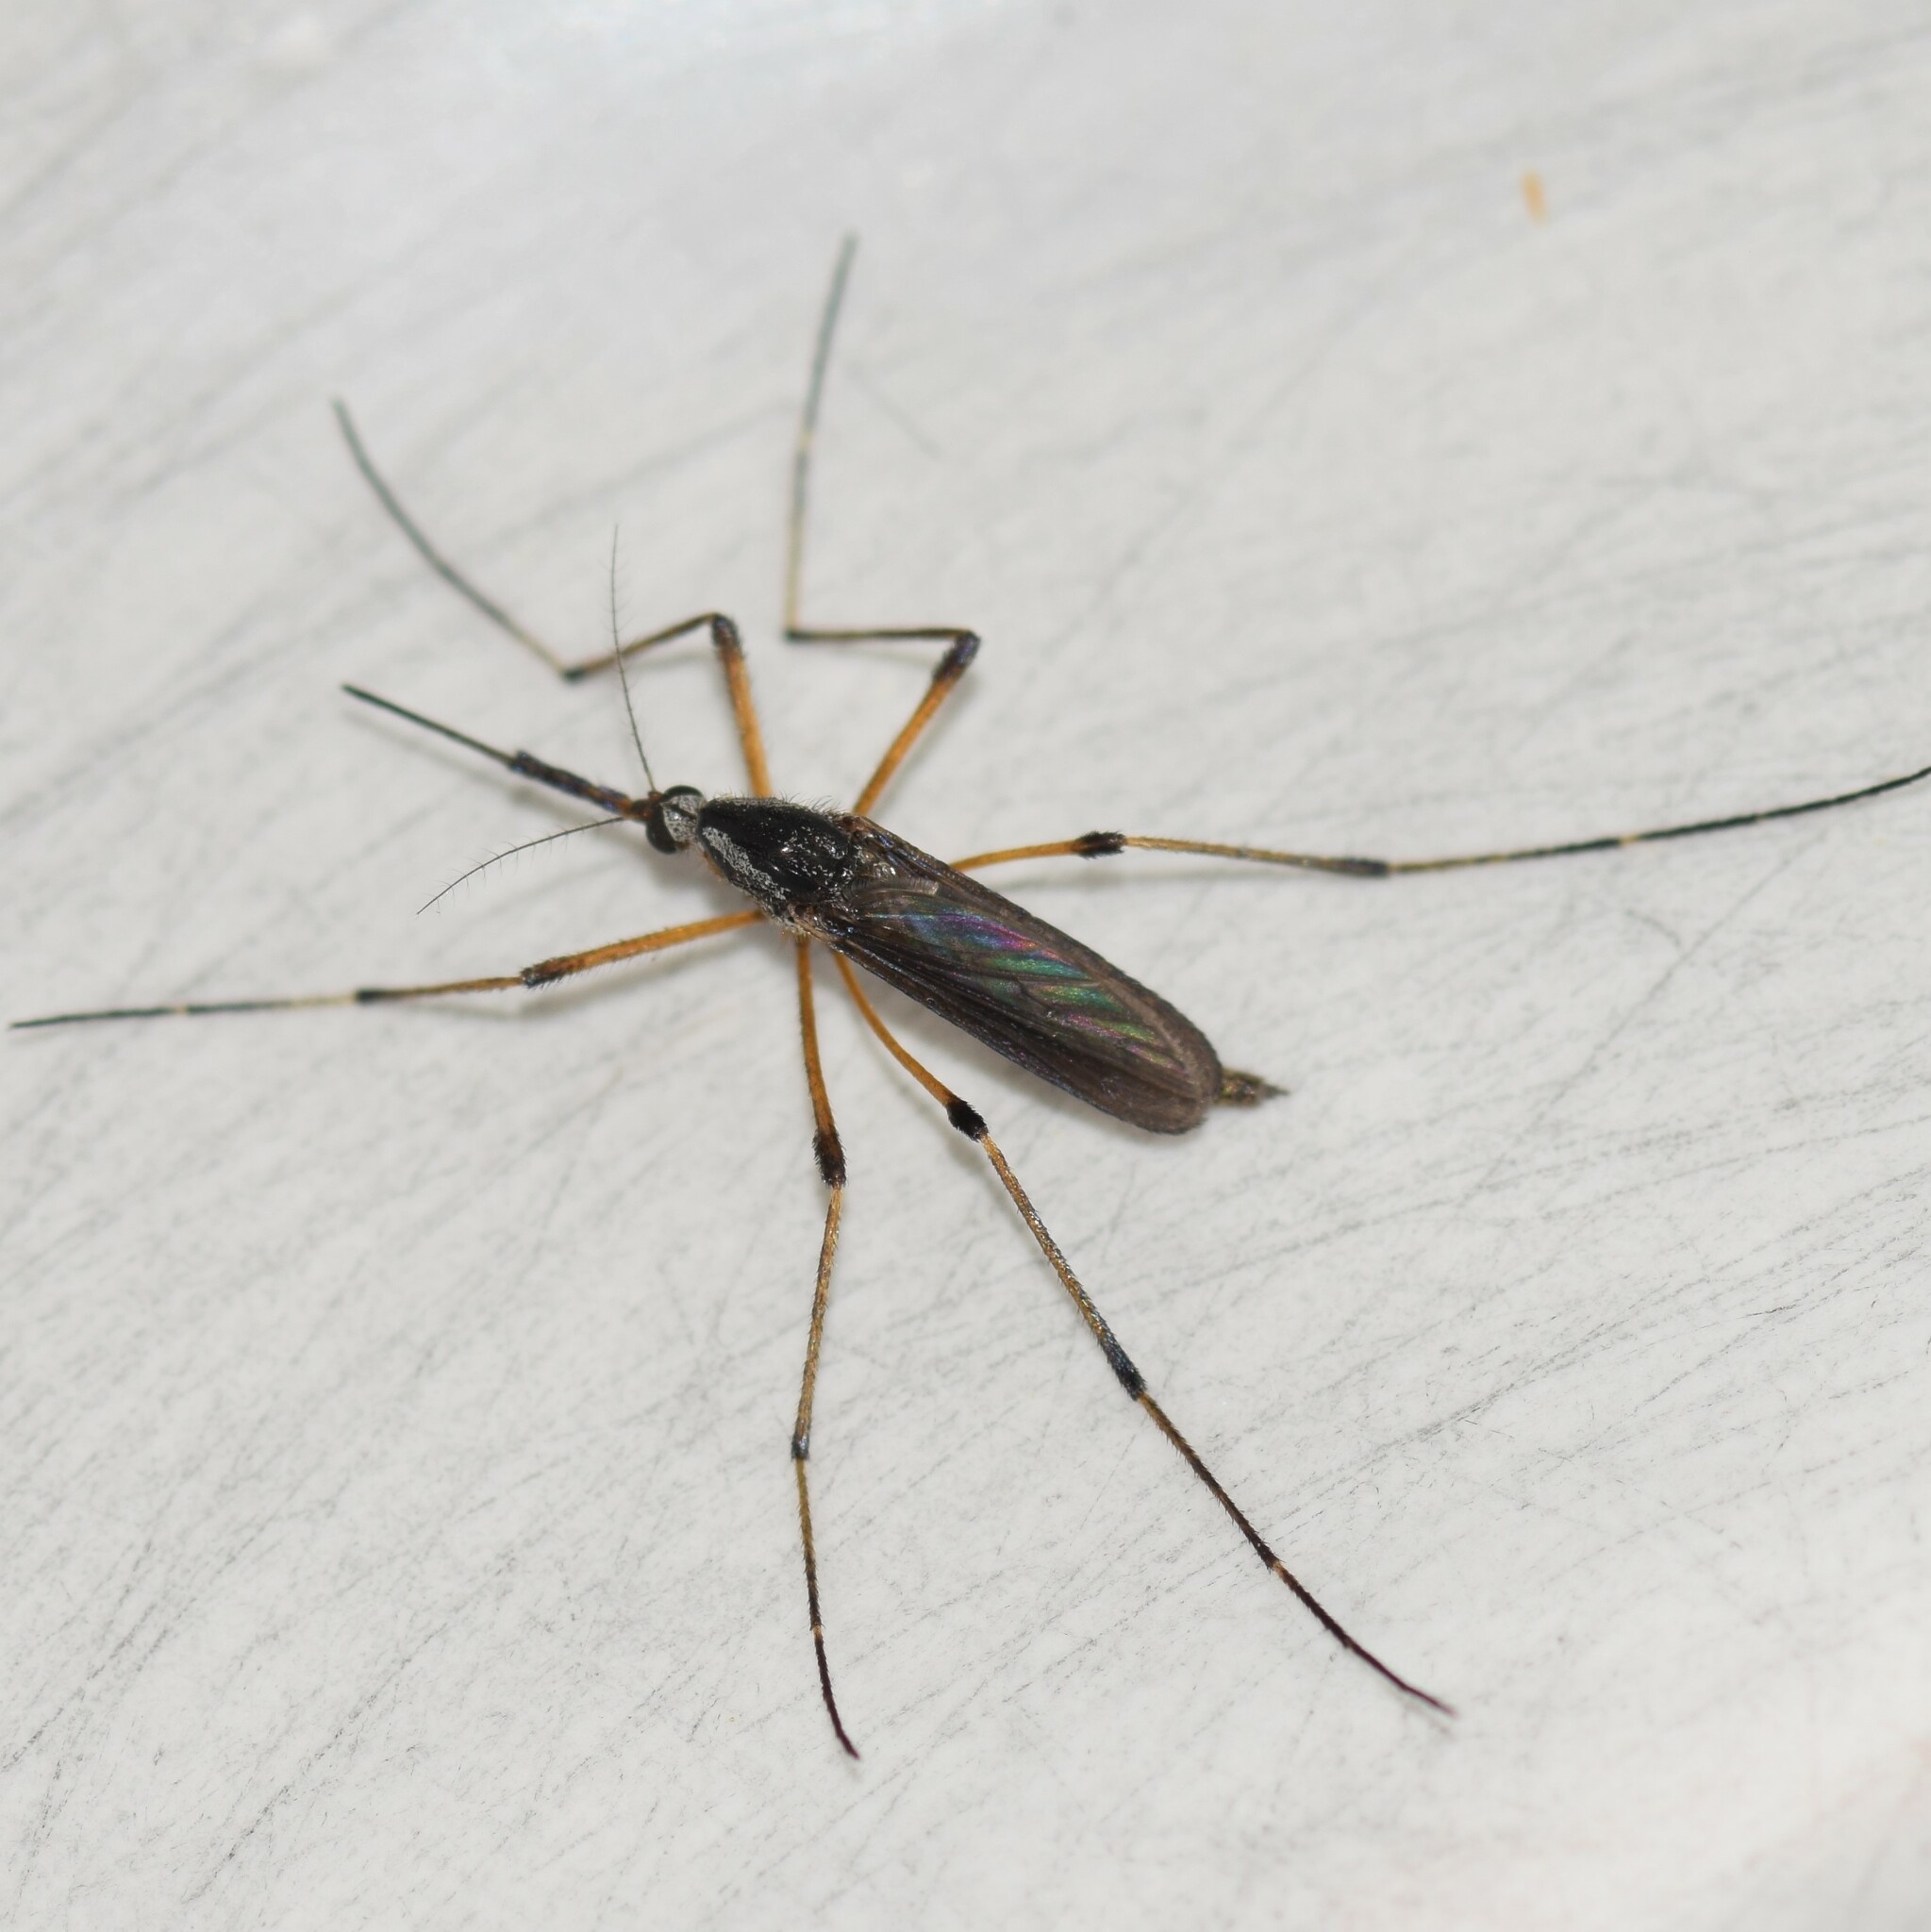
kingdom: Animalia
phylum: Arthropoda
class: Insecta
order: Diptera
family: Culicidae
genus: Psorophora
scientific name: Psorophora howardii
